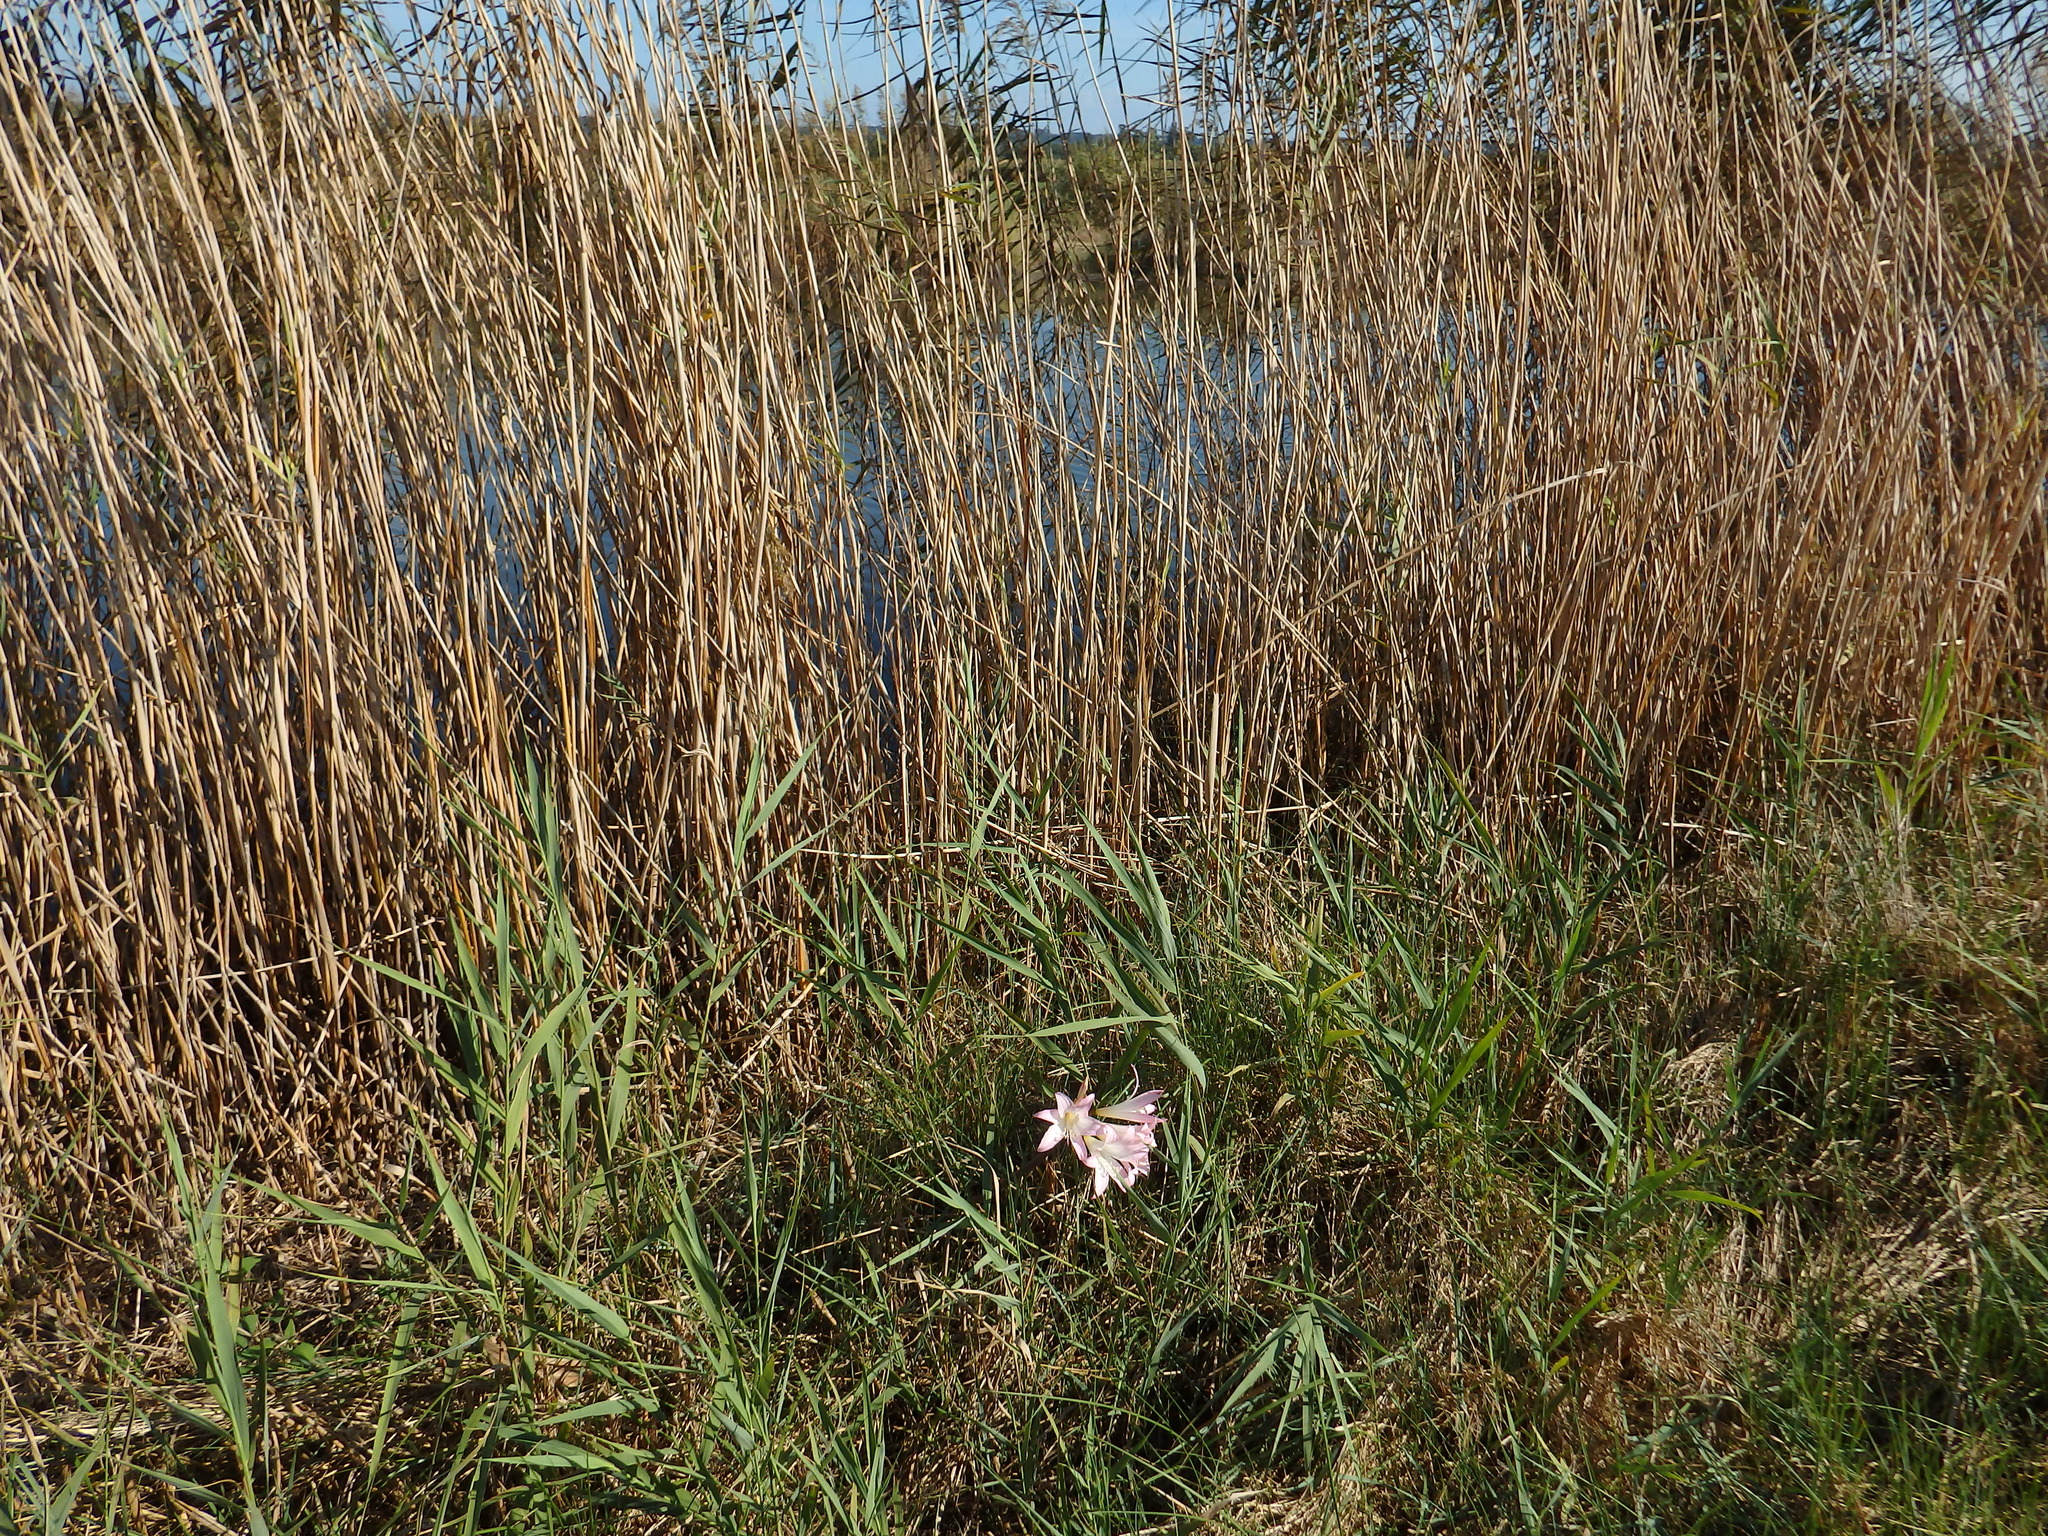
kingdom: Plantae
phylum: Tracheophyta
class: Liliopsida
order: Asparagales
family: Amaryllidaceae
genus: Amaryllis
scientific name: Amaryllis belladonna
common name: Jersey lily
